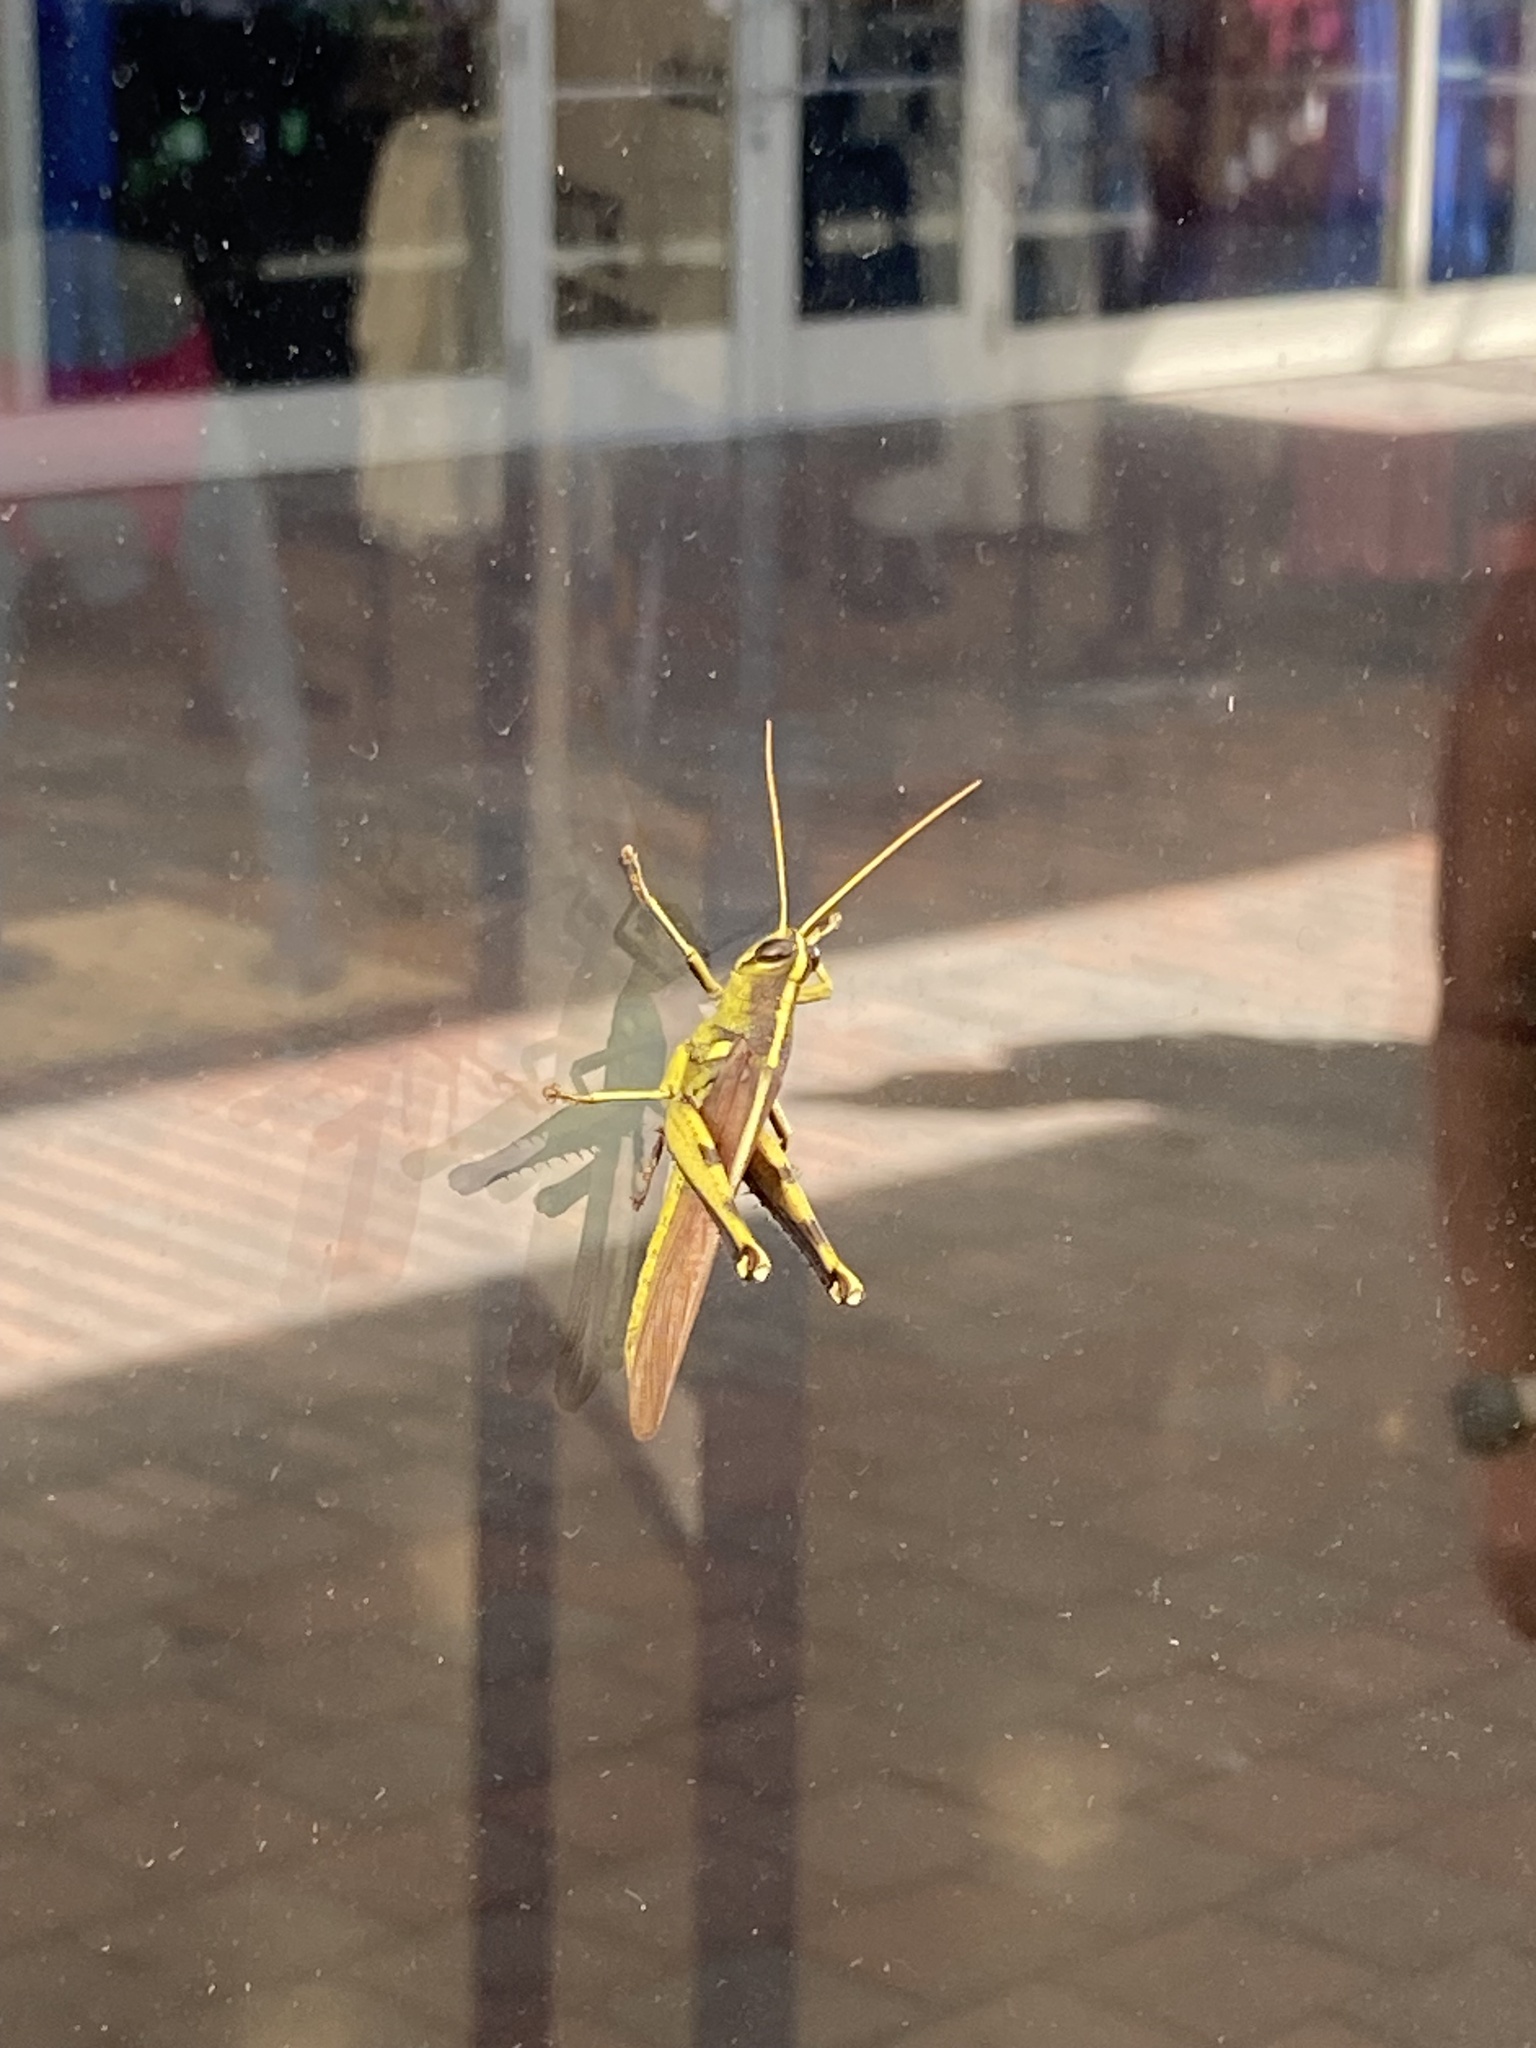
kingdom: Animalia
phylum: Arthropoda
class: Insecta
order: Orthoptera
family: Acrididae
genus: Schistocerca
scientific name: Schistocerca obscura
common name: Obscure bird grasshopper
